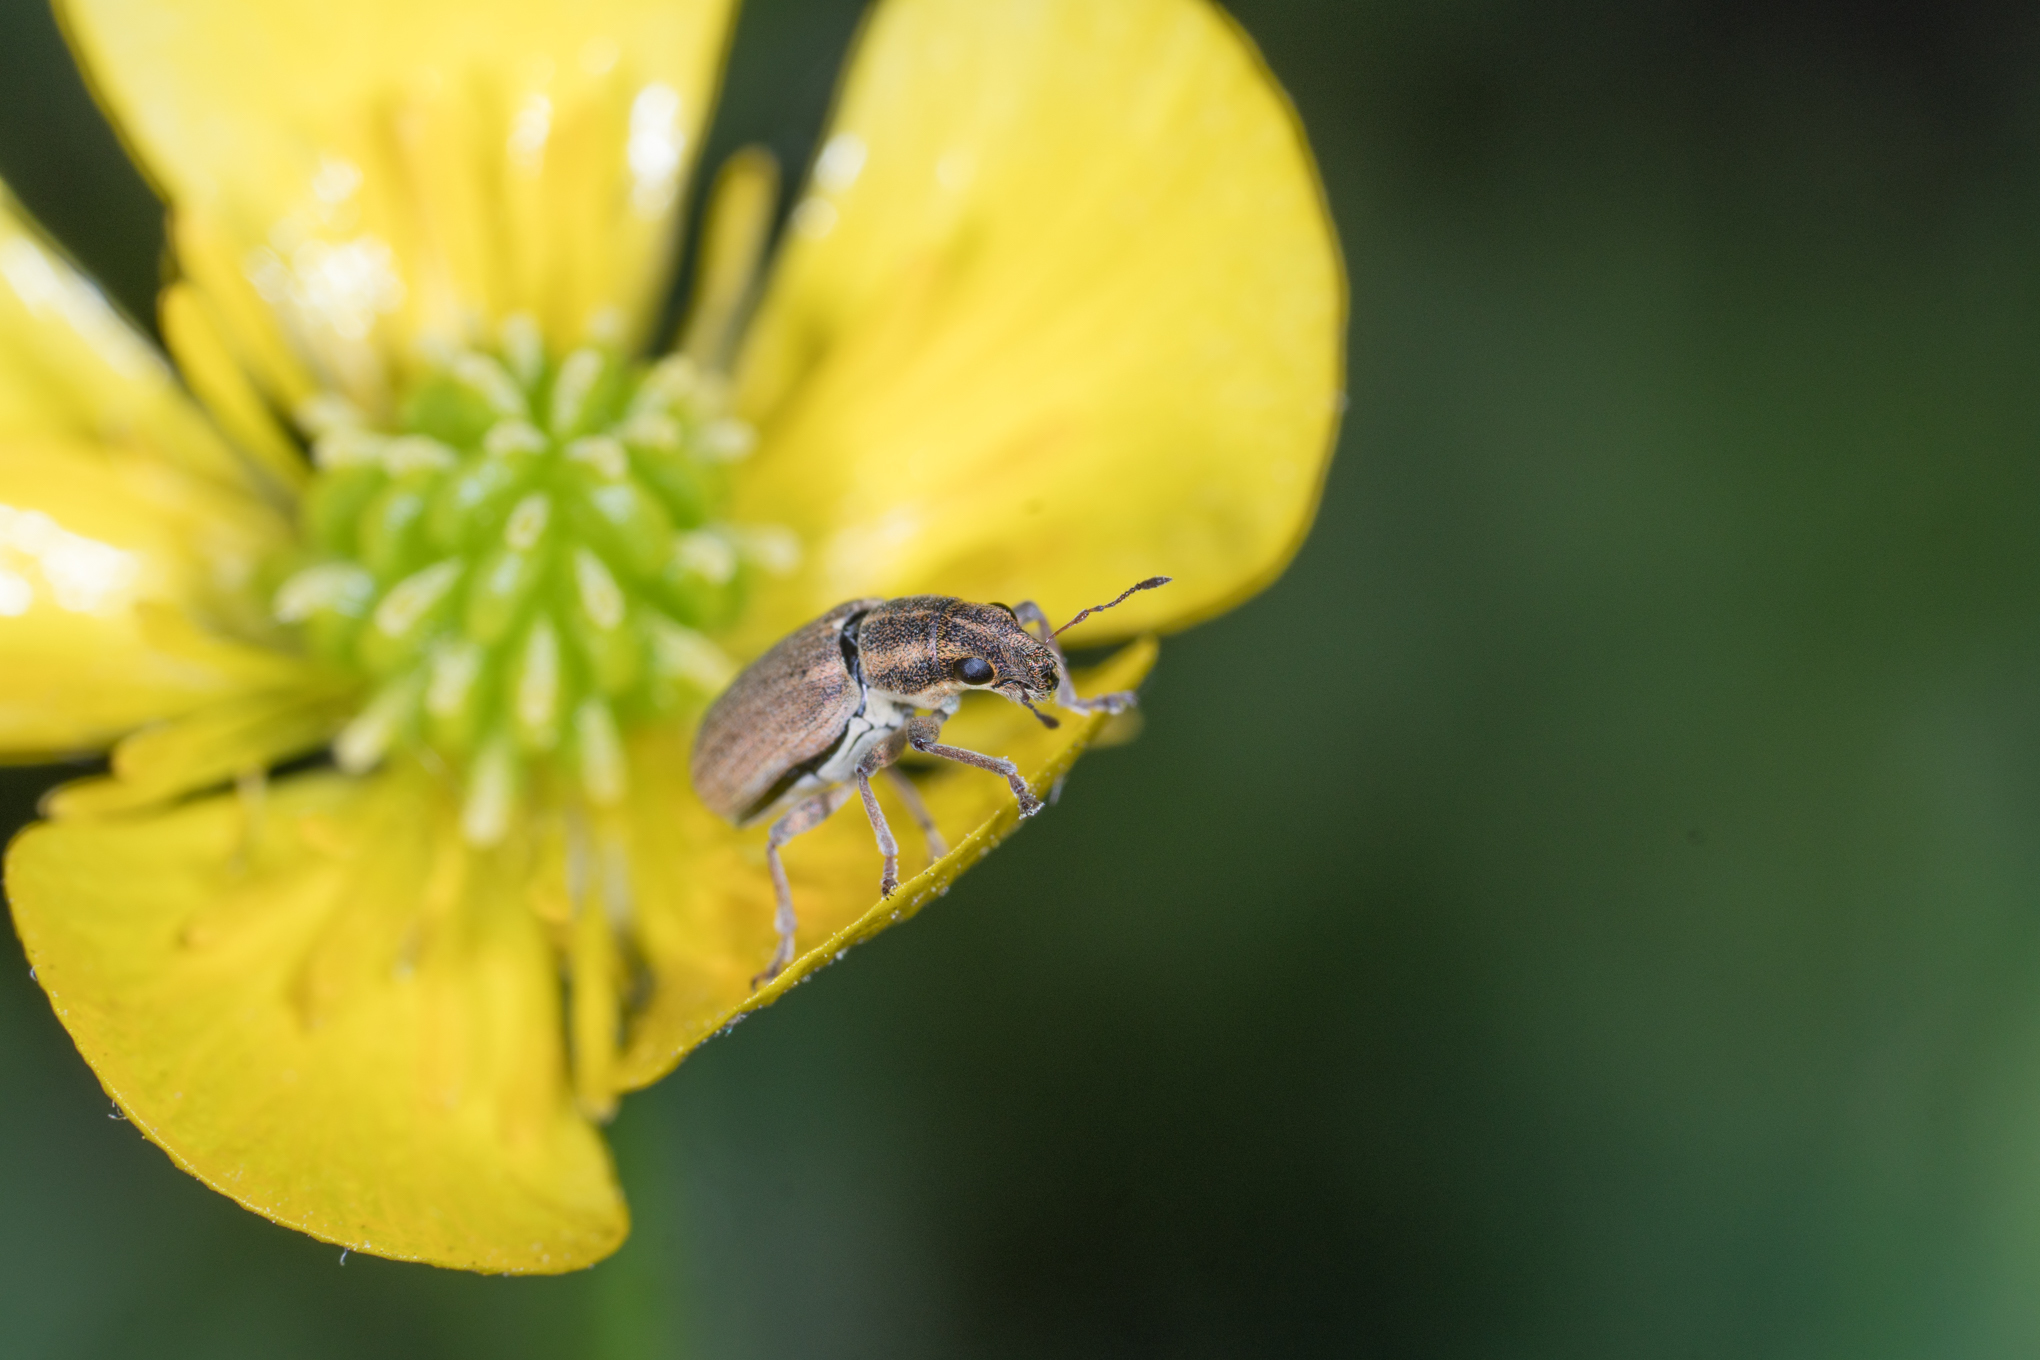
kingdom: Animalia
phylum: Arthropoda
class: Insecta
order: Coleoptera
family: Curculionidae
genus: Sitona
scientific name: Sitona lineatus
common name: Weevil
